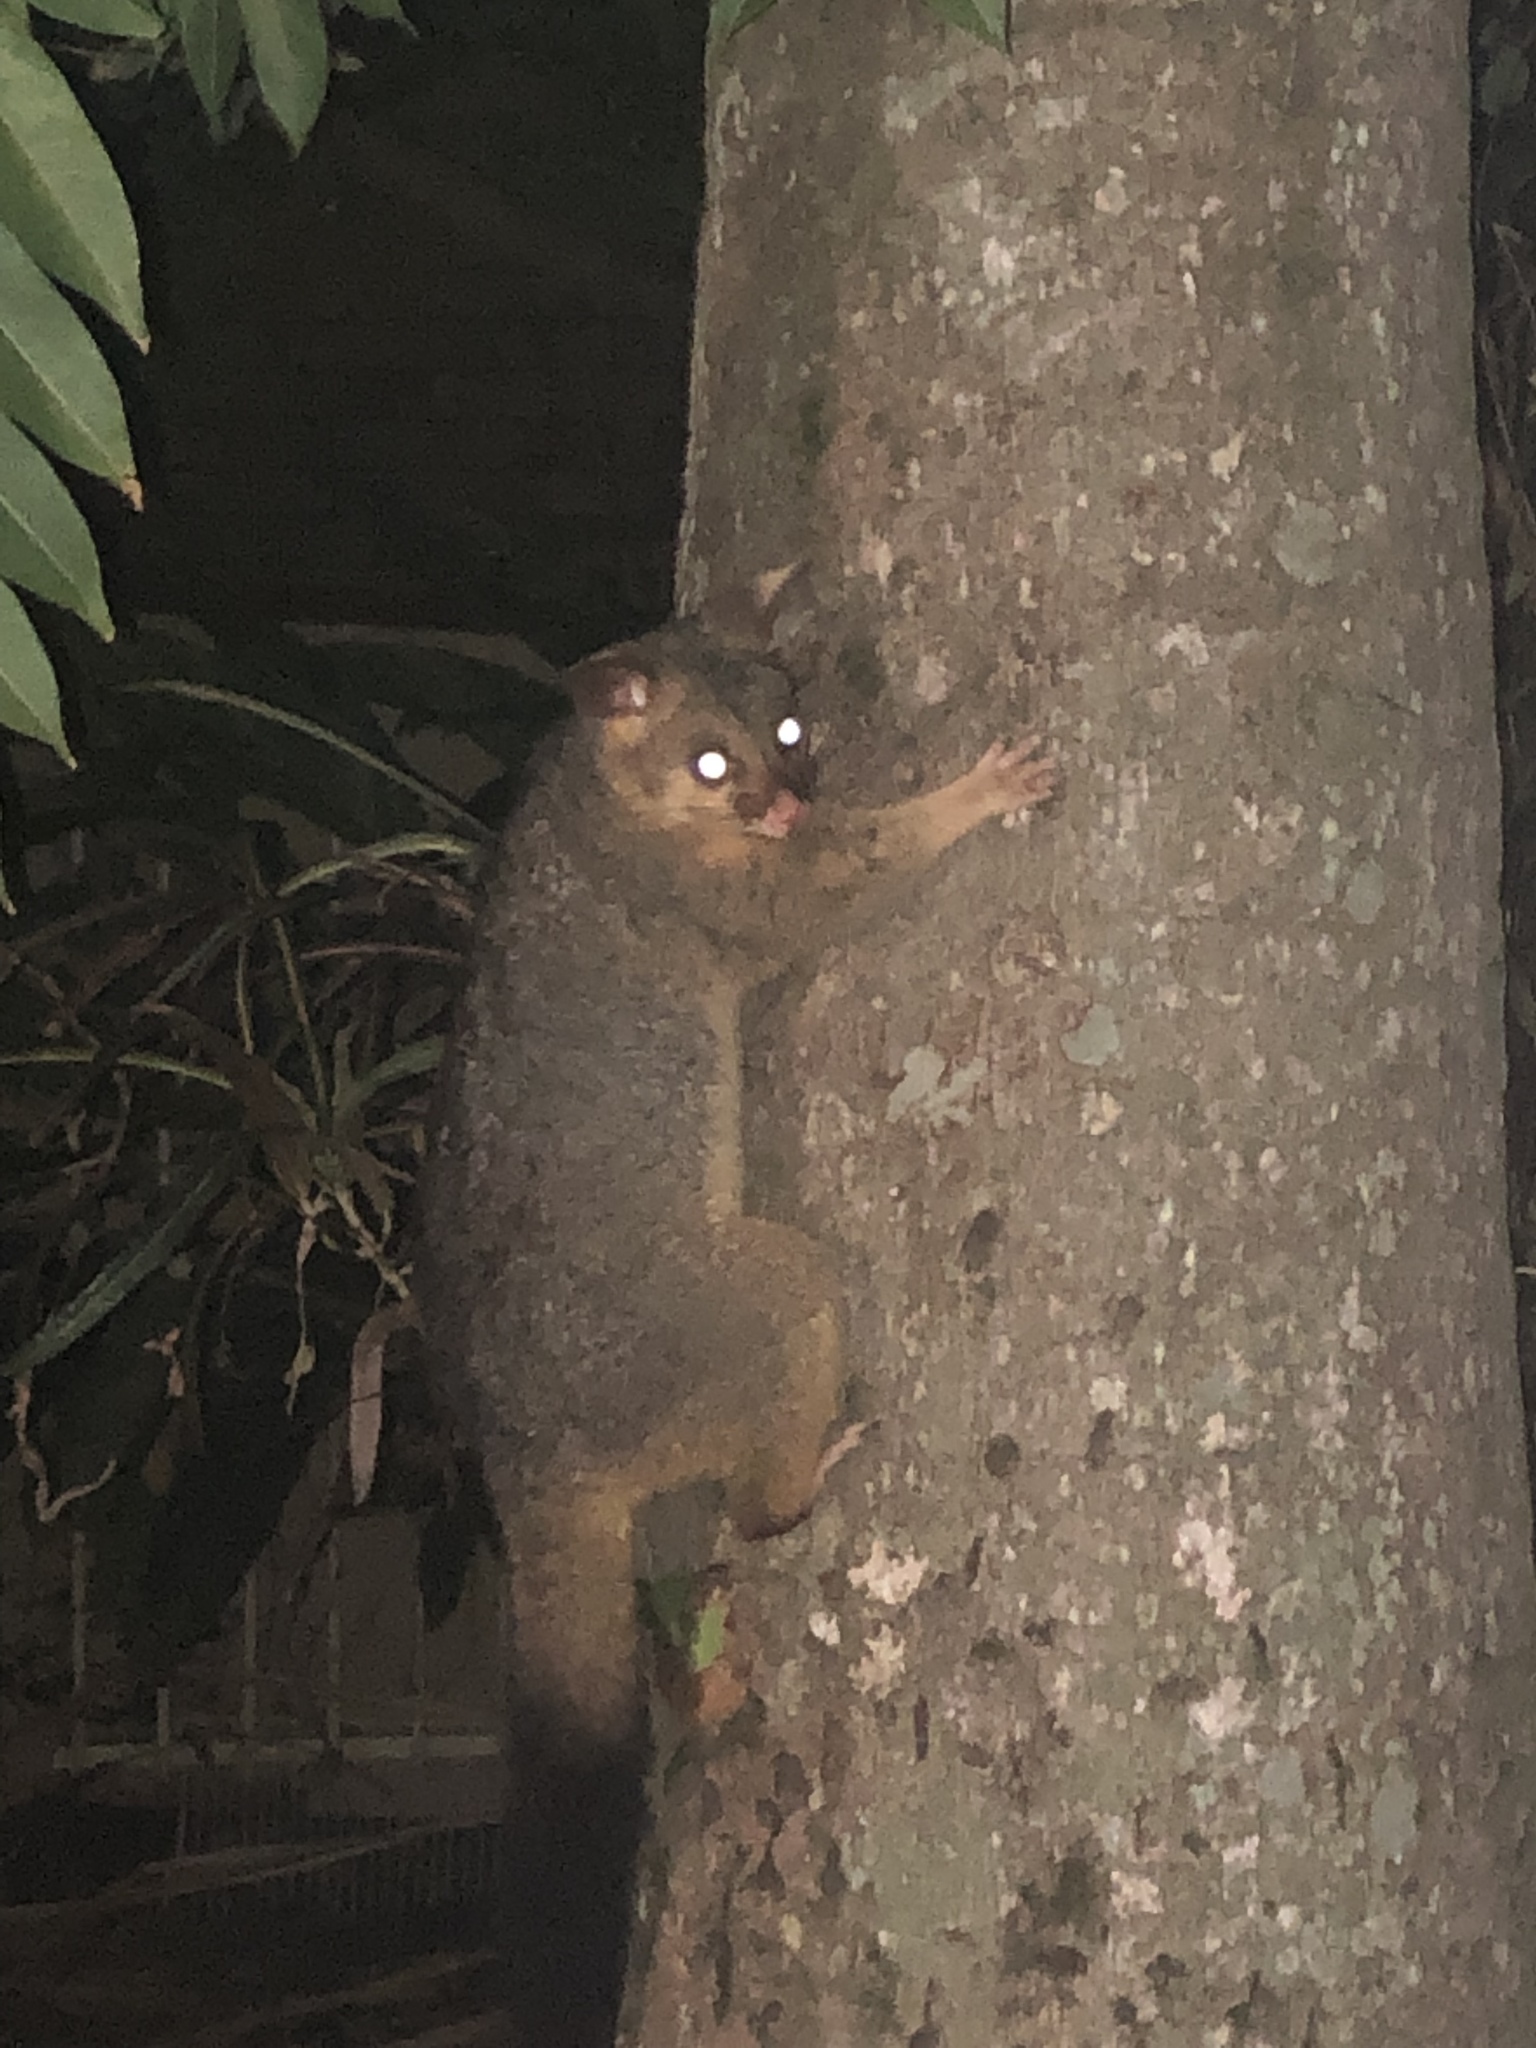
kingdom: Animalia
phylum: Chordata
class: Mammalia
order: Diprotodontia
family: Phalangeridae
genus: Trichosurus
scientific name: Trichosurus vulpecula
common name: Common brushtail
